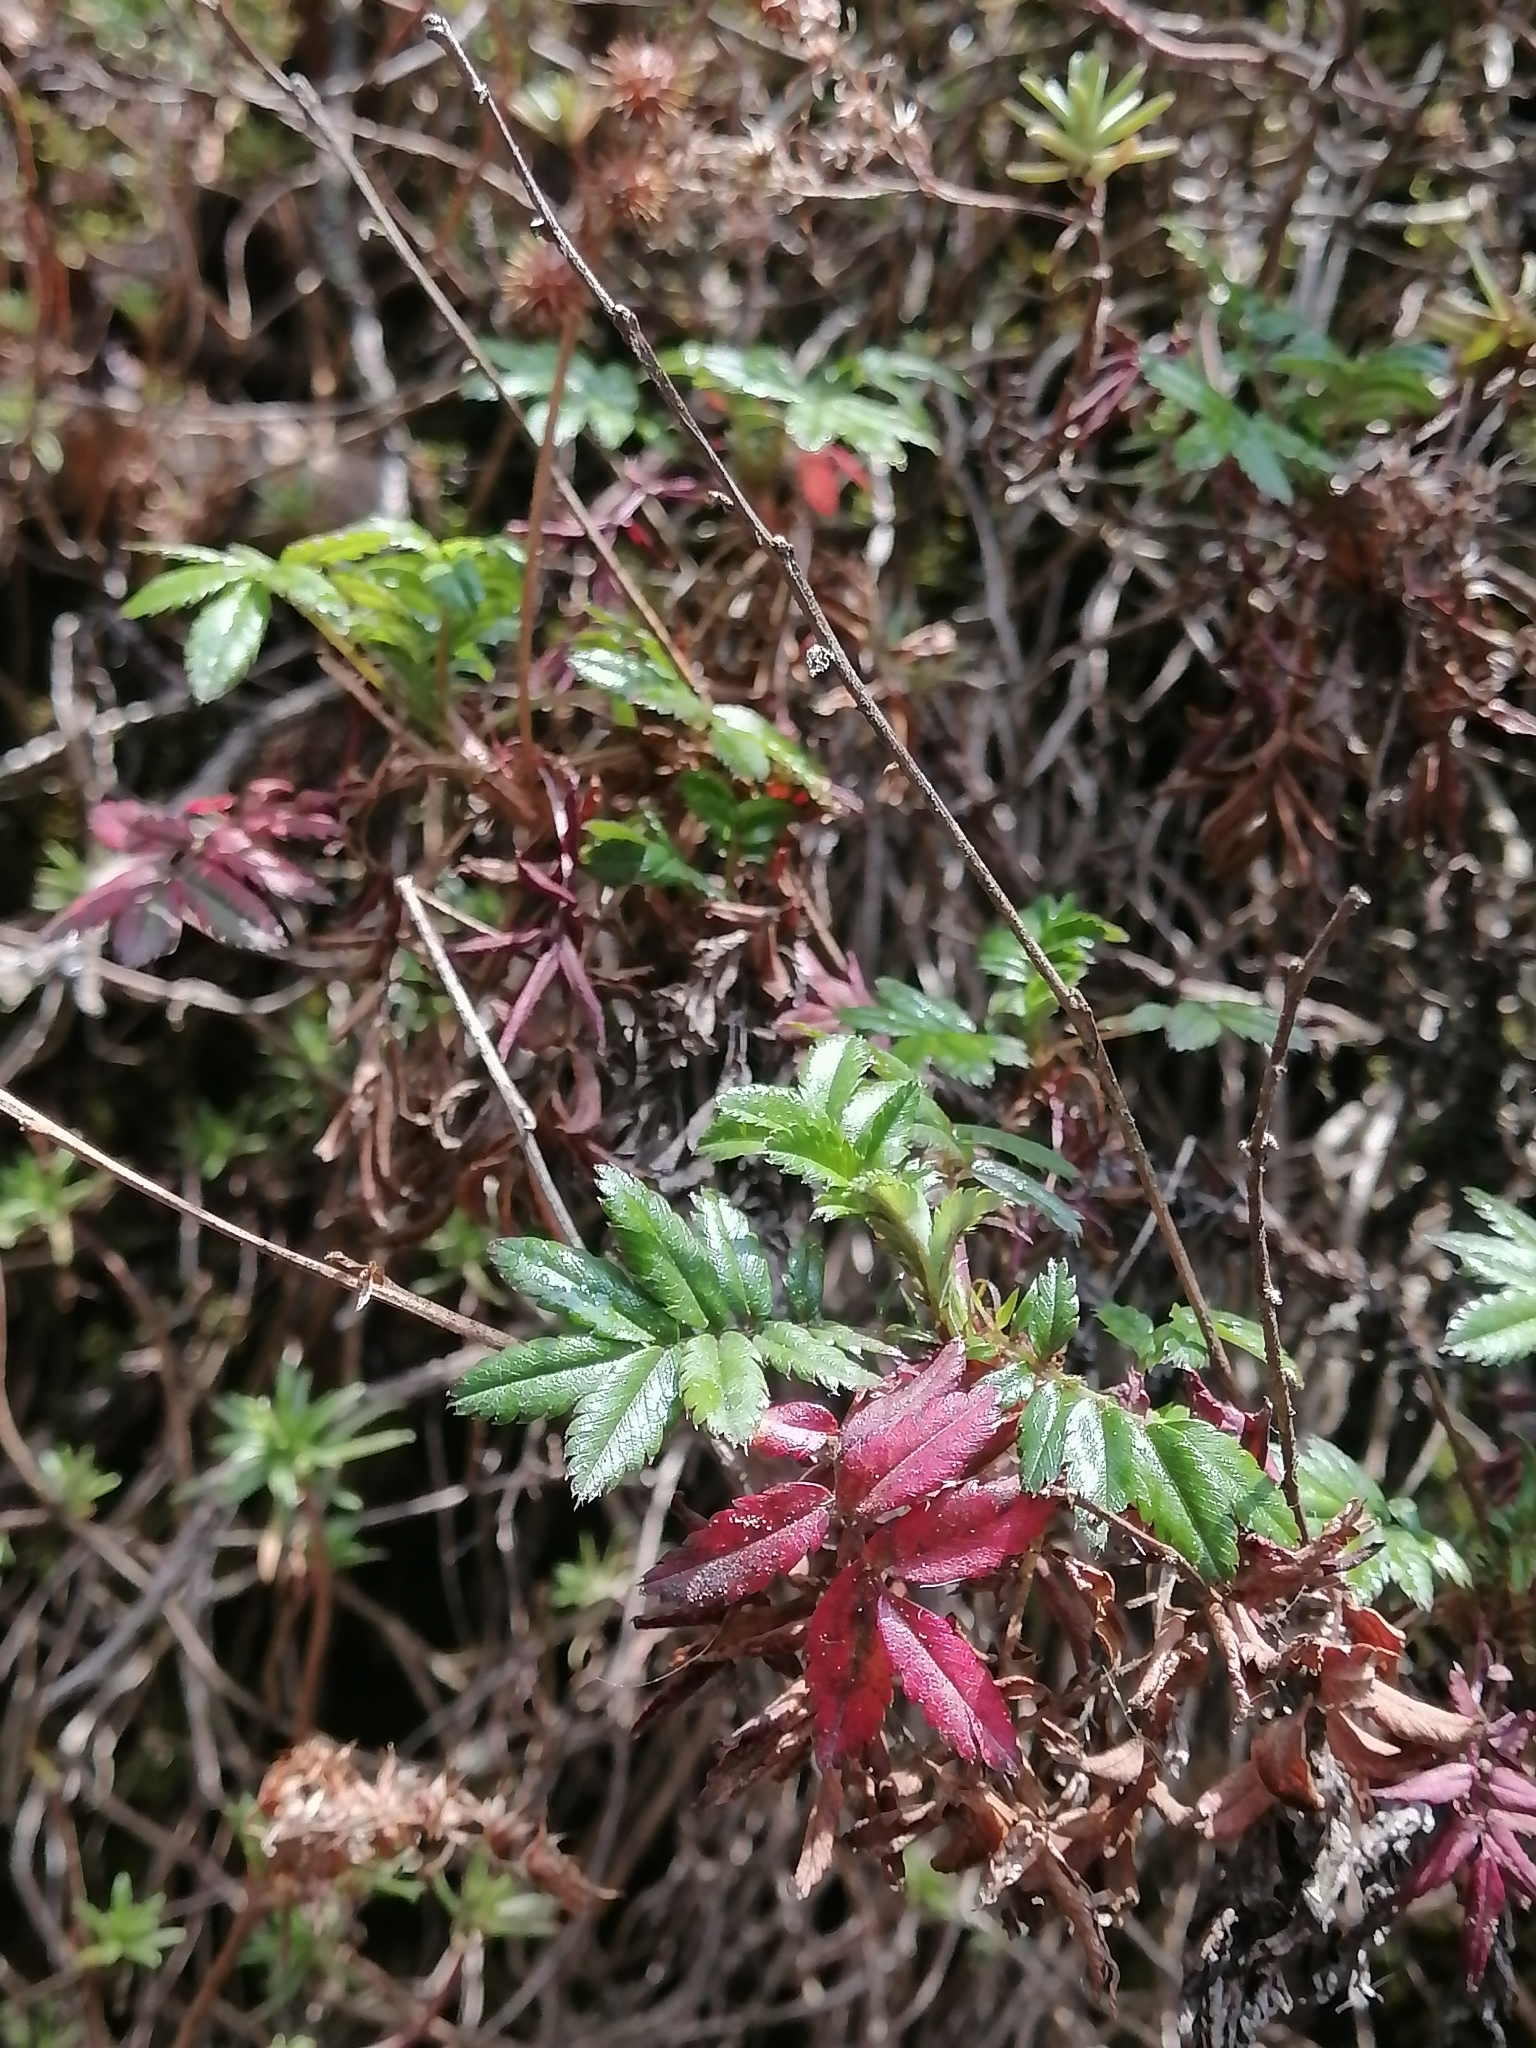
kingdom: Plantae
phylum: Tracheophyta
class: Magnoliopsida
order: Rosales
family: Rosaceae
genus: Acaena
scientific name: Acaena elongata
